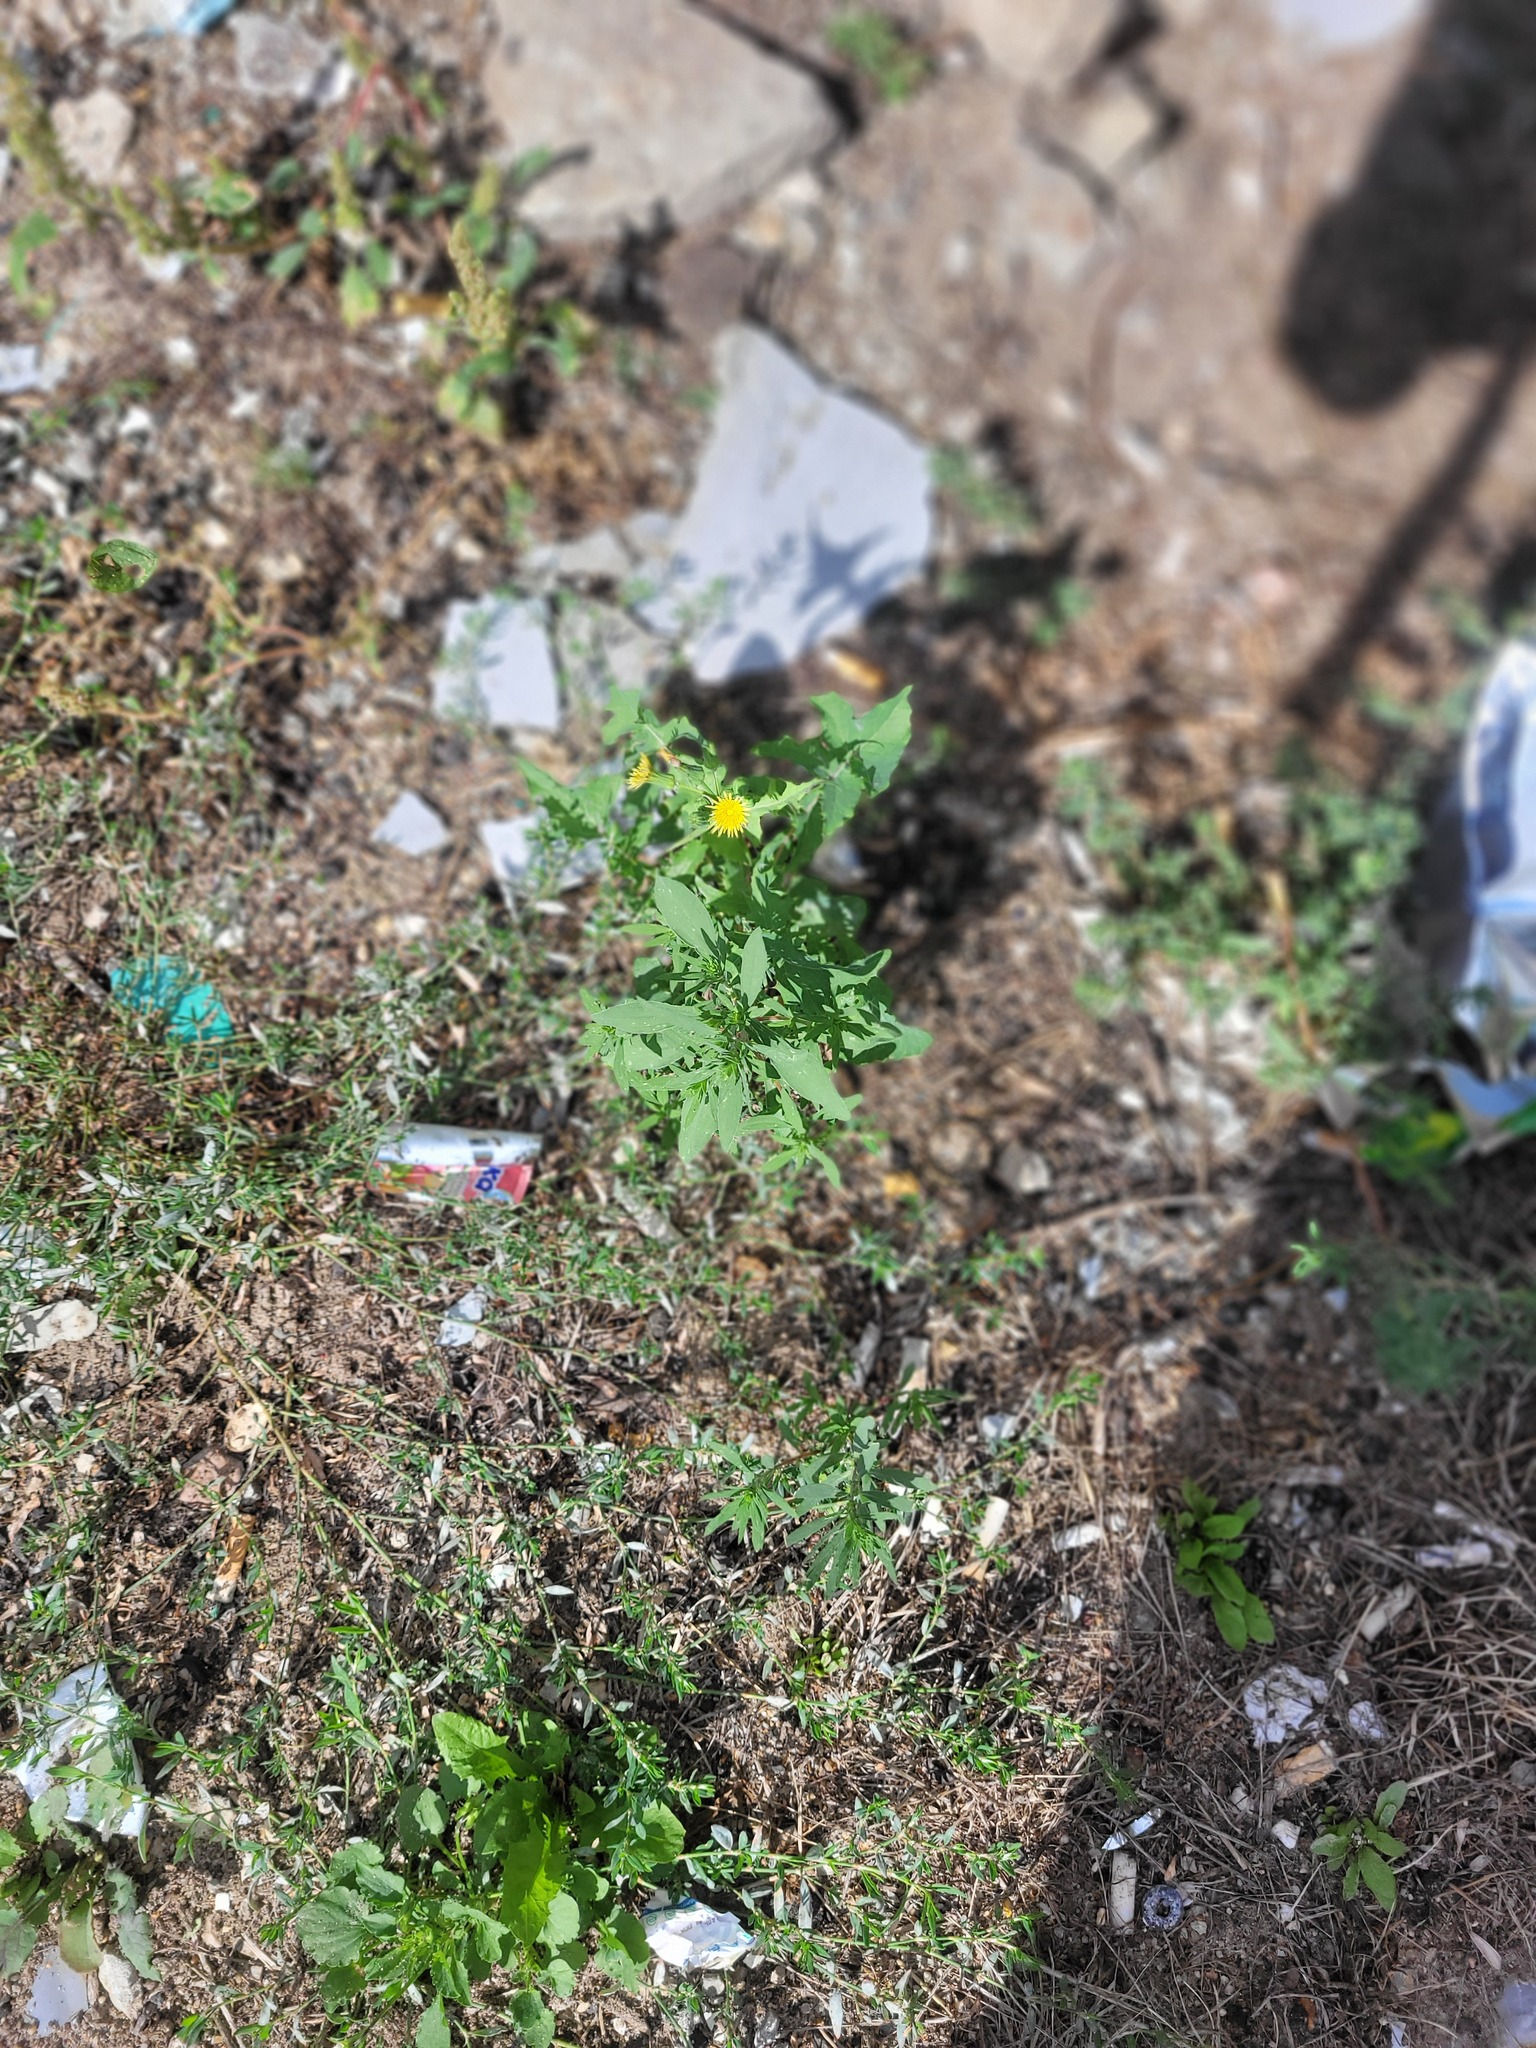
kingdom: Plantae
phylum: Tracheophyta
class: Magnoliopsida
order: Caryophyllales
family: Amaranthaceae
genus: Bassia
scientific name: Bassia scoparia
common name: Belvedere
